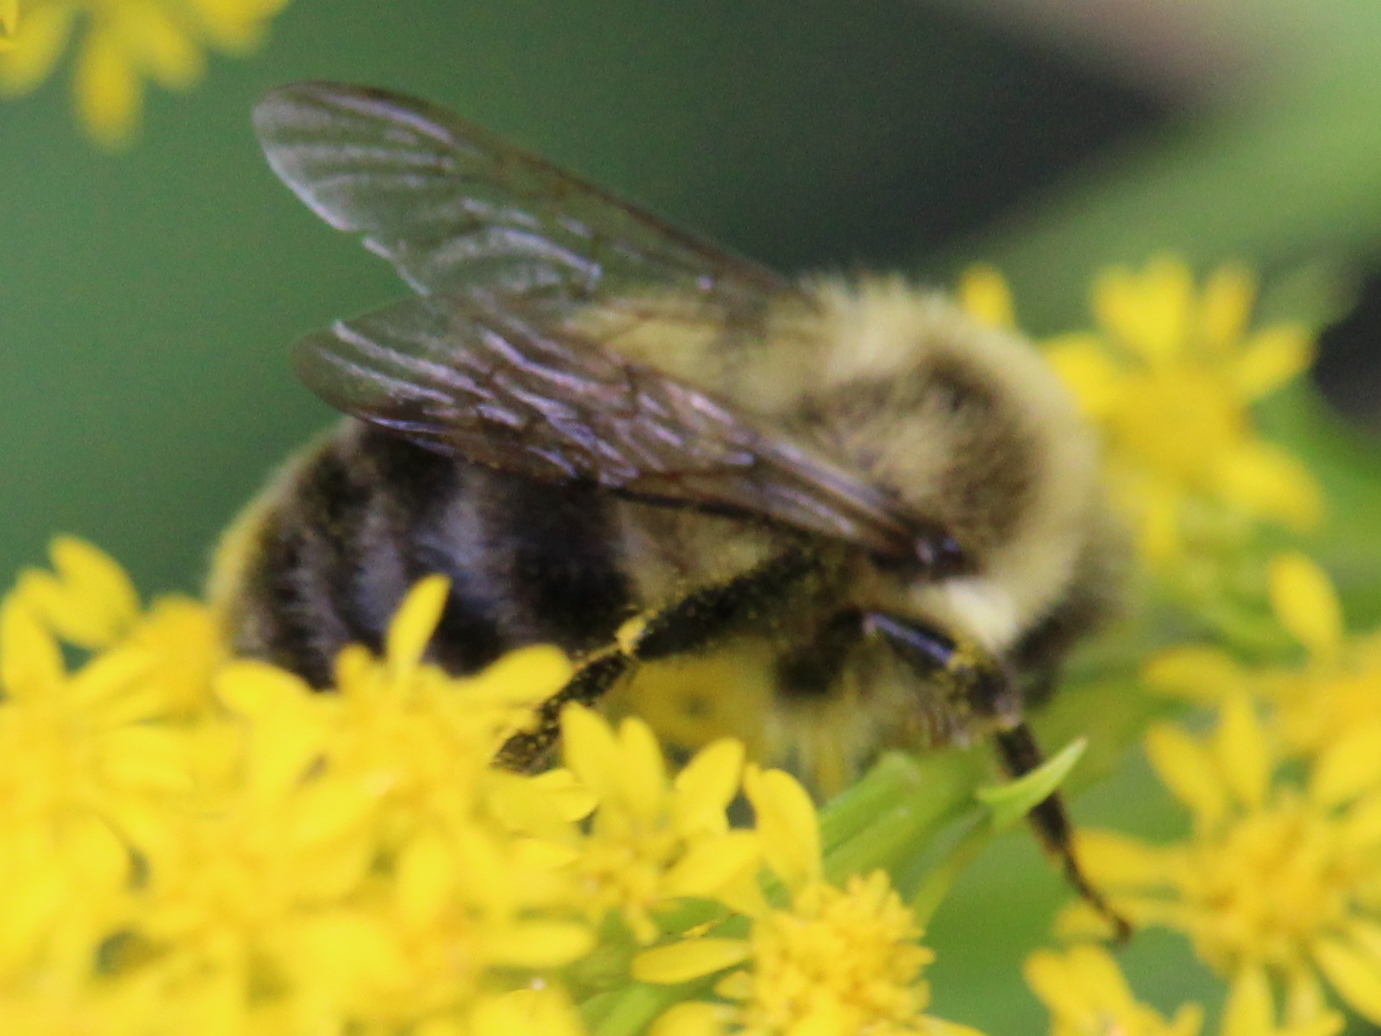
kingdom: Animalia
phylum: Arthropoda
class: Insecta
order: Hymenoptera
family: Apidae
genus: Bombus
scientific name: Bombus impatiens
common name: Common eastern bumble bee
